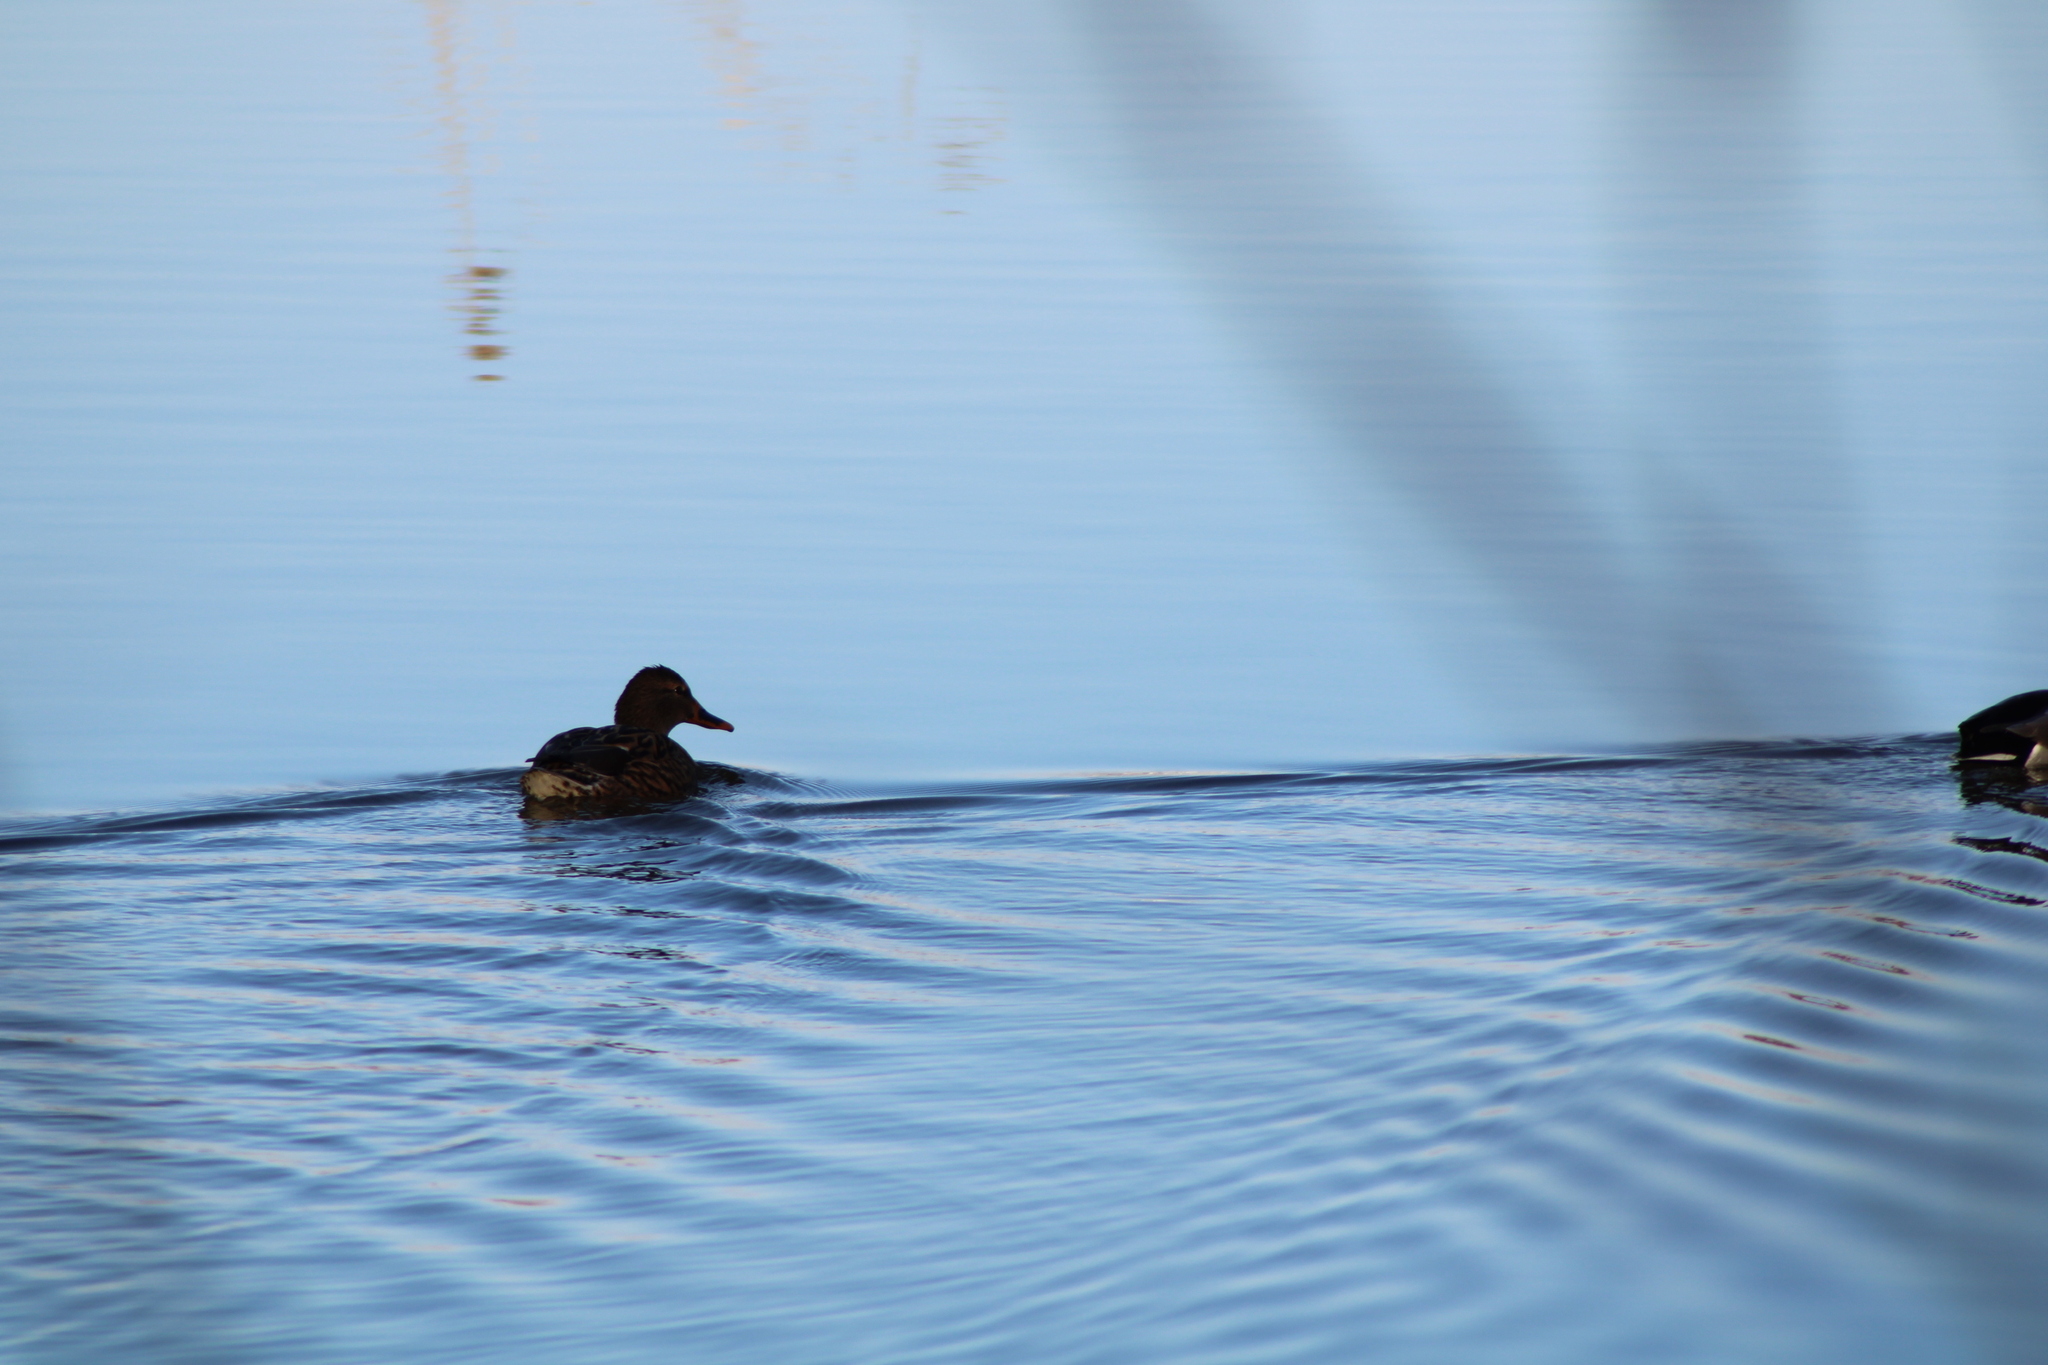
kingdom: Animalia
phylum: Chordata
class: Aves
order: Anseriformes
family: Anatidae
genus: Anas
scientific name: Anas platyrhynchos
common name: Mallard
